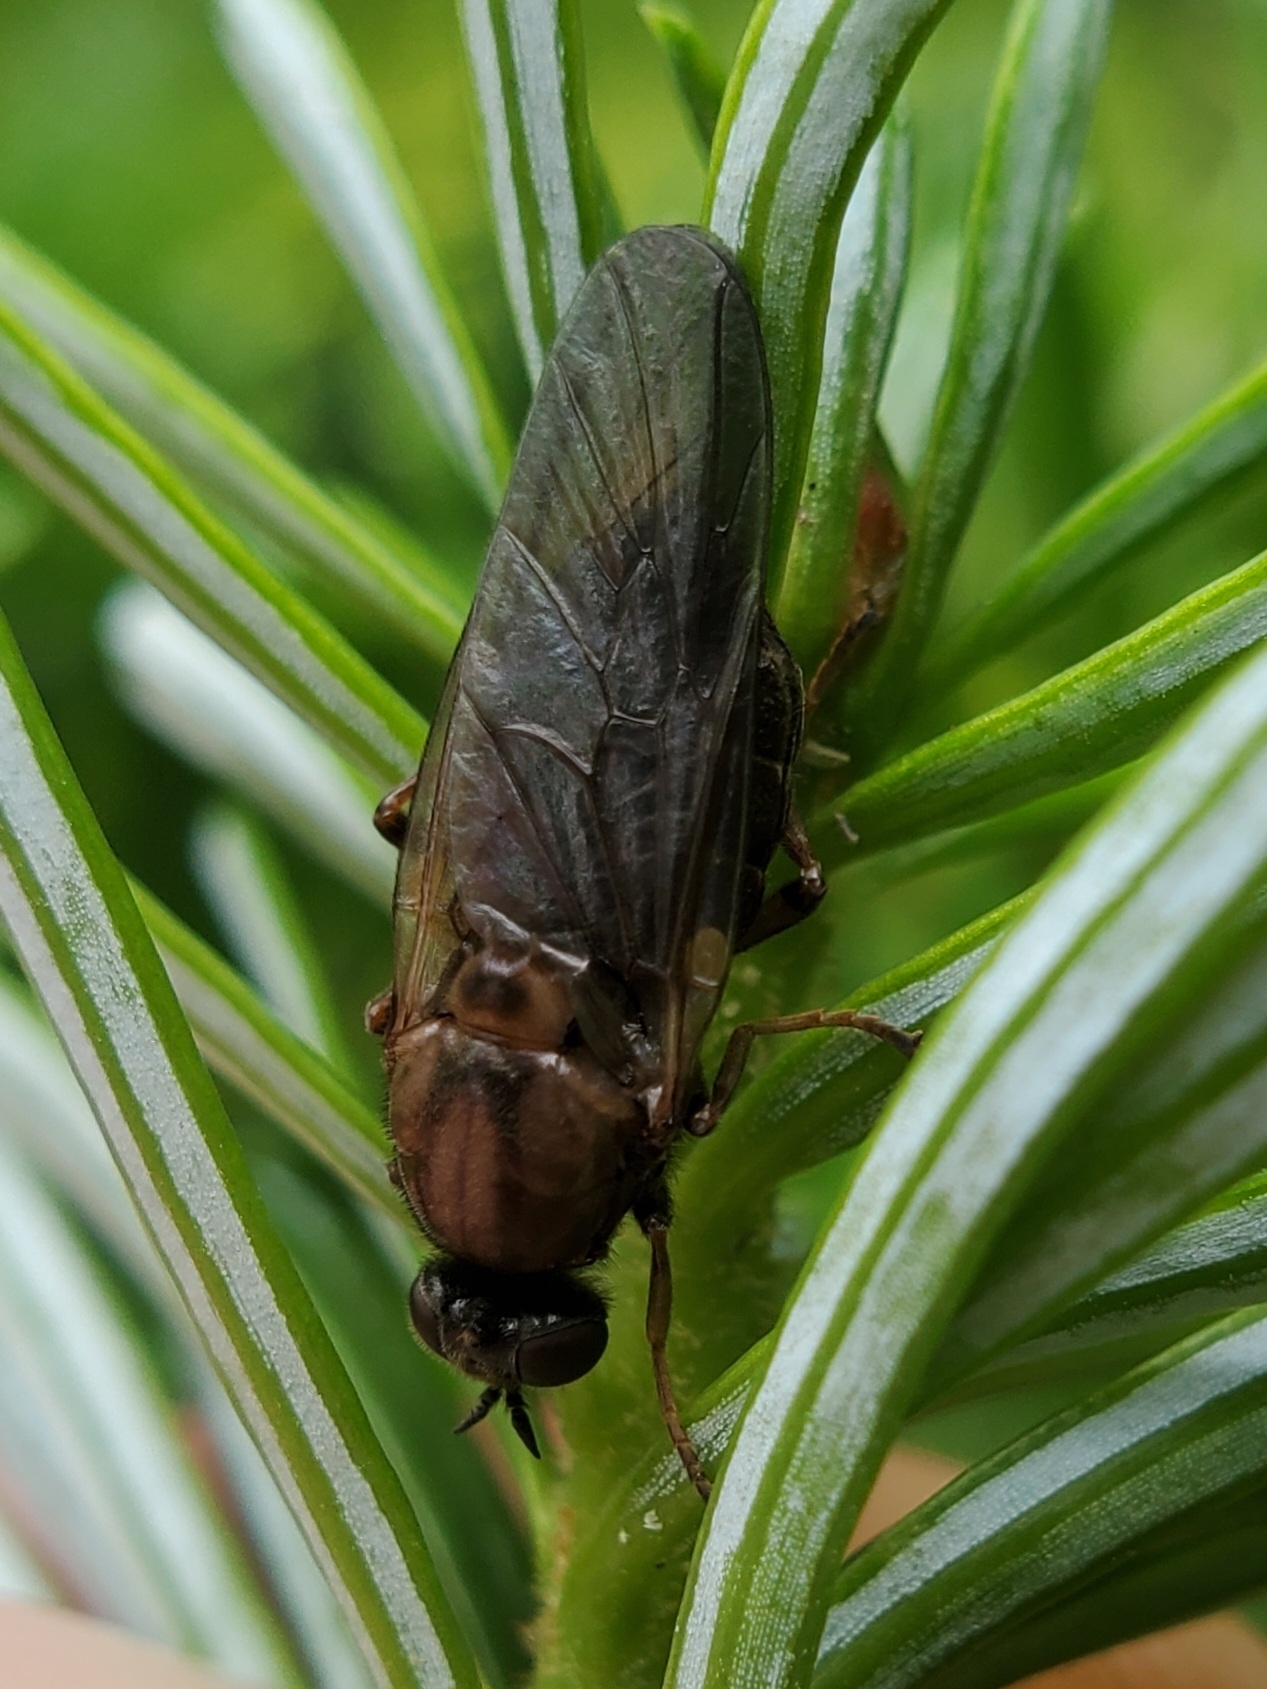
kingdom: Animalia
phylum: Arthropoda
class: Insecta
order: Diptera
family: Xylophagidae
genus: Coenomyia
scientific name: Coenomyia ferruginea
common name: Stink fly
